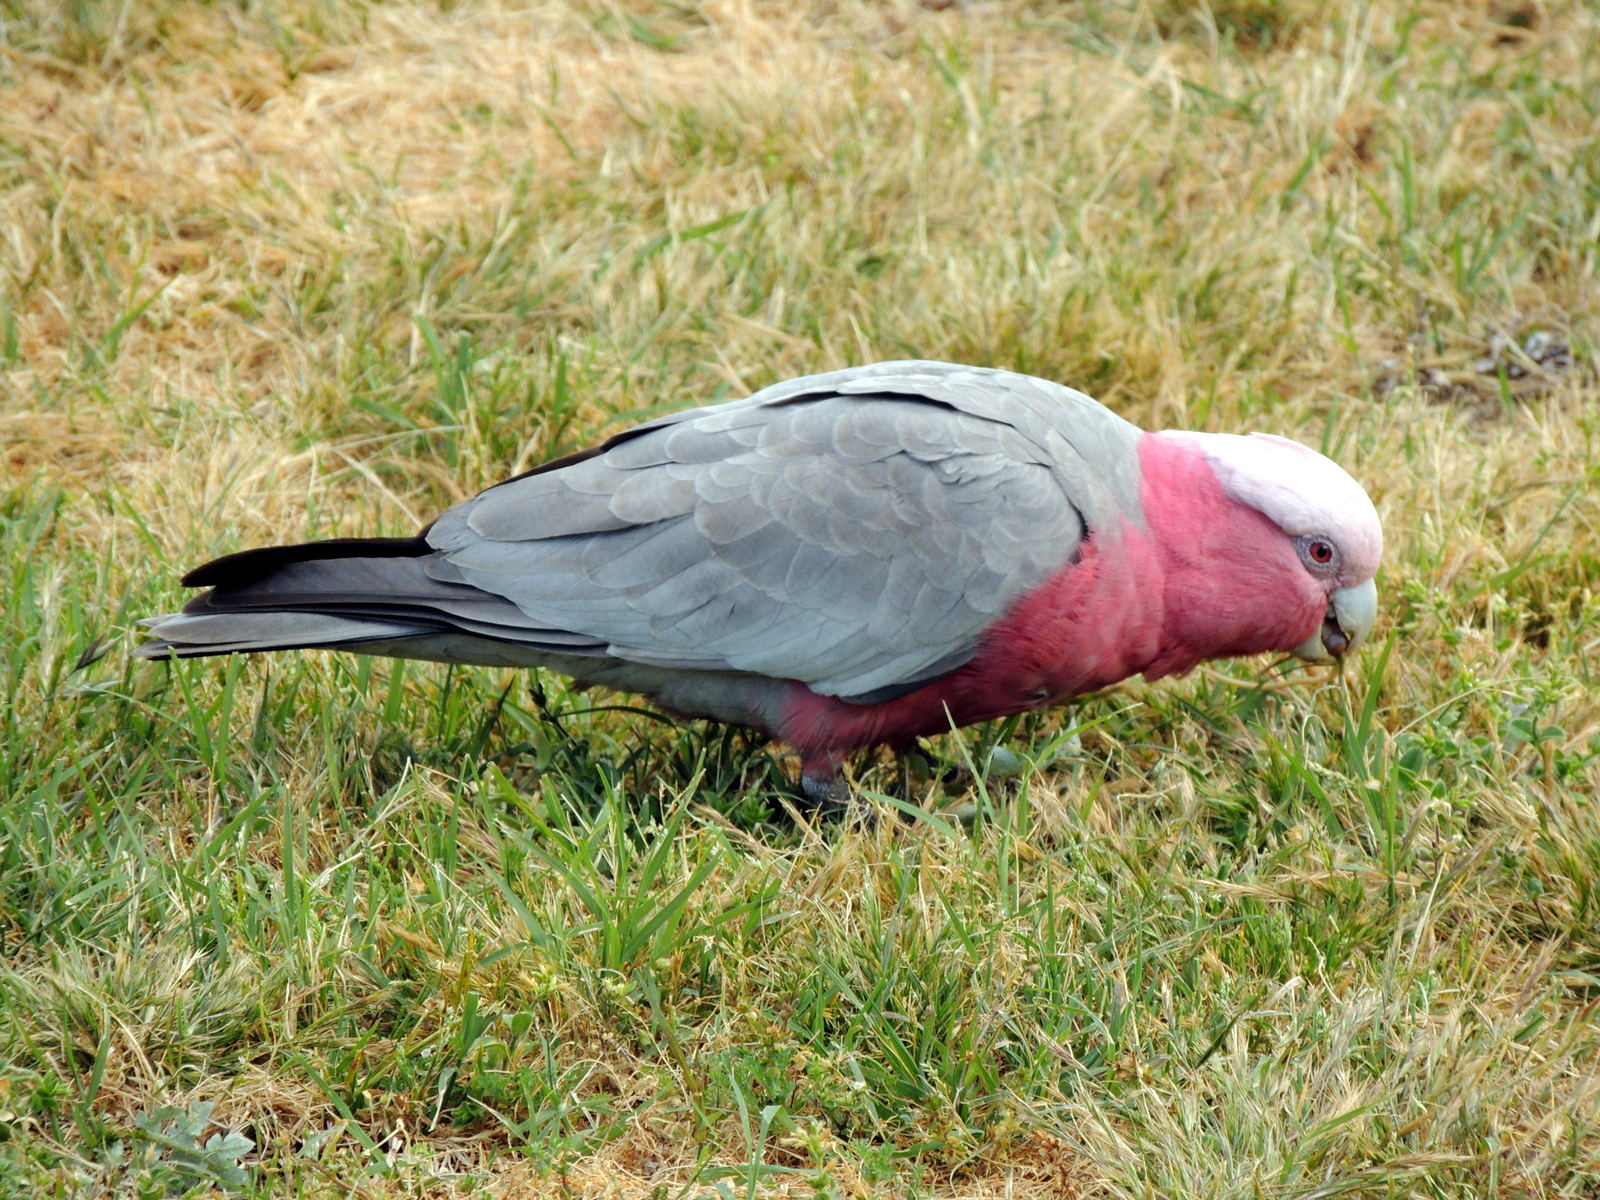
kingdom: Animalia
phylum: Chordata
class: Aves
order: Psittaciformes
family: Psittacidae
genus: Eolophus
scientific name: Eolophus roseicapilla
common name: Galah
